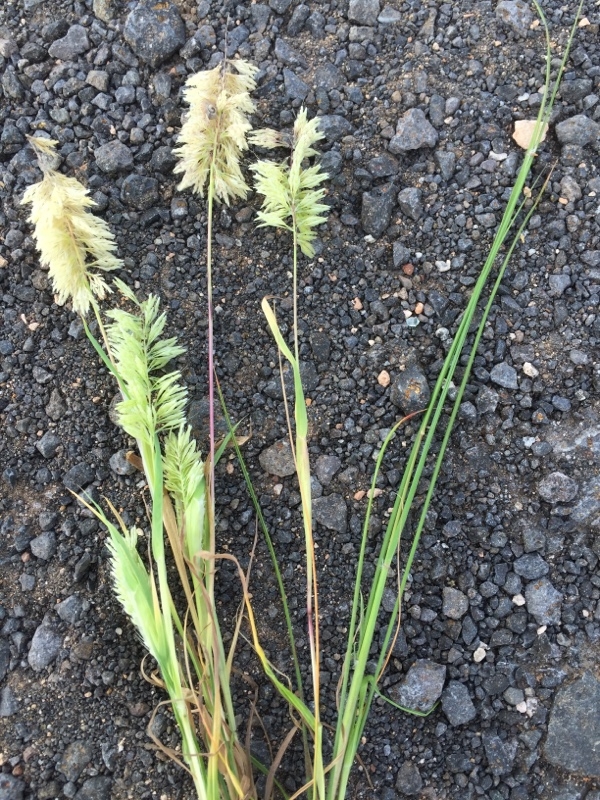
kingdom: Plantae
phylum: Tracheophyta
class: Liliopsida
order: Poales
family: Poaceae
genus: Lamarckia
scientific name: Lamarckia aurea
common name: Golden dog's-tail
